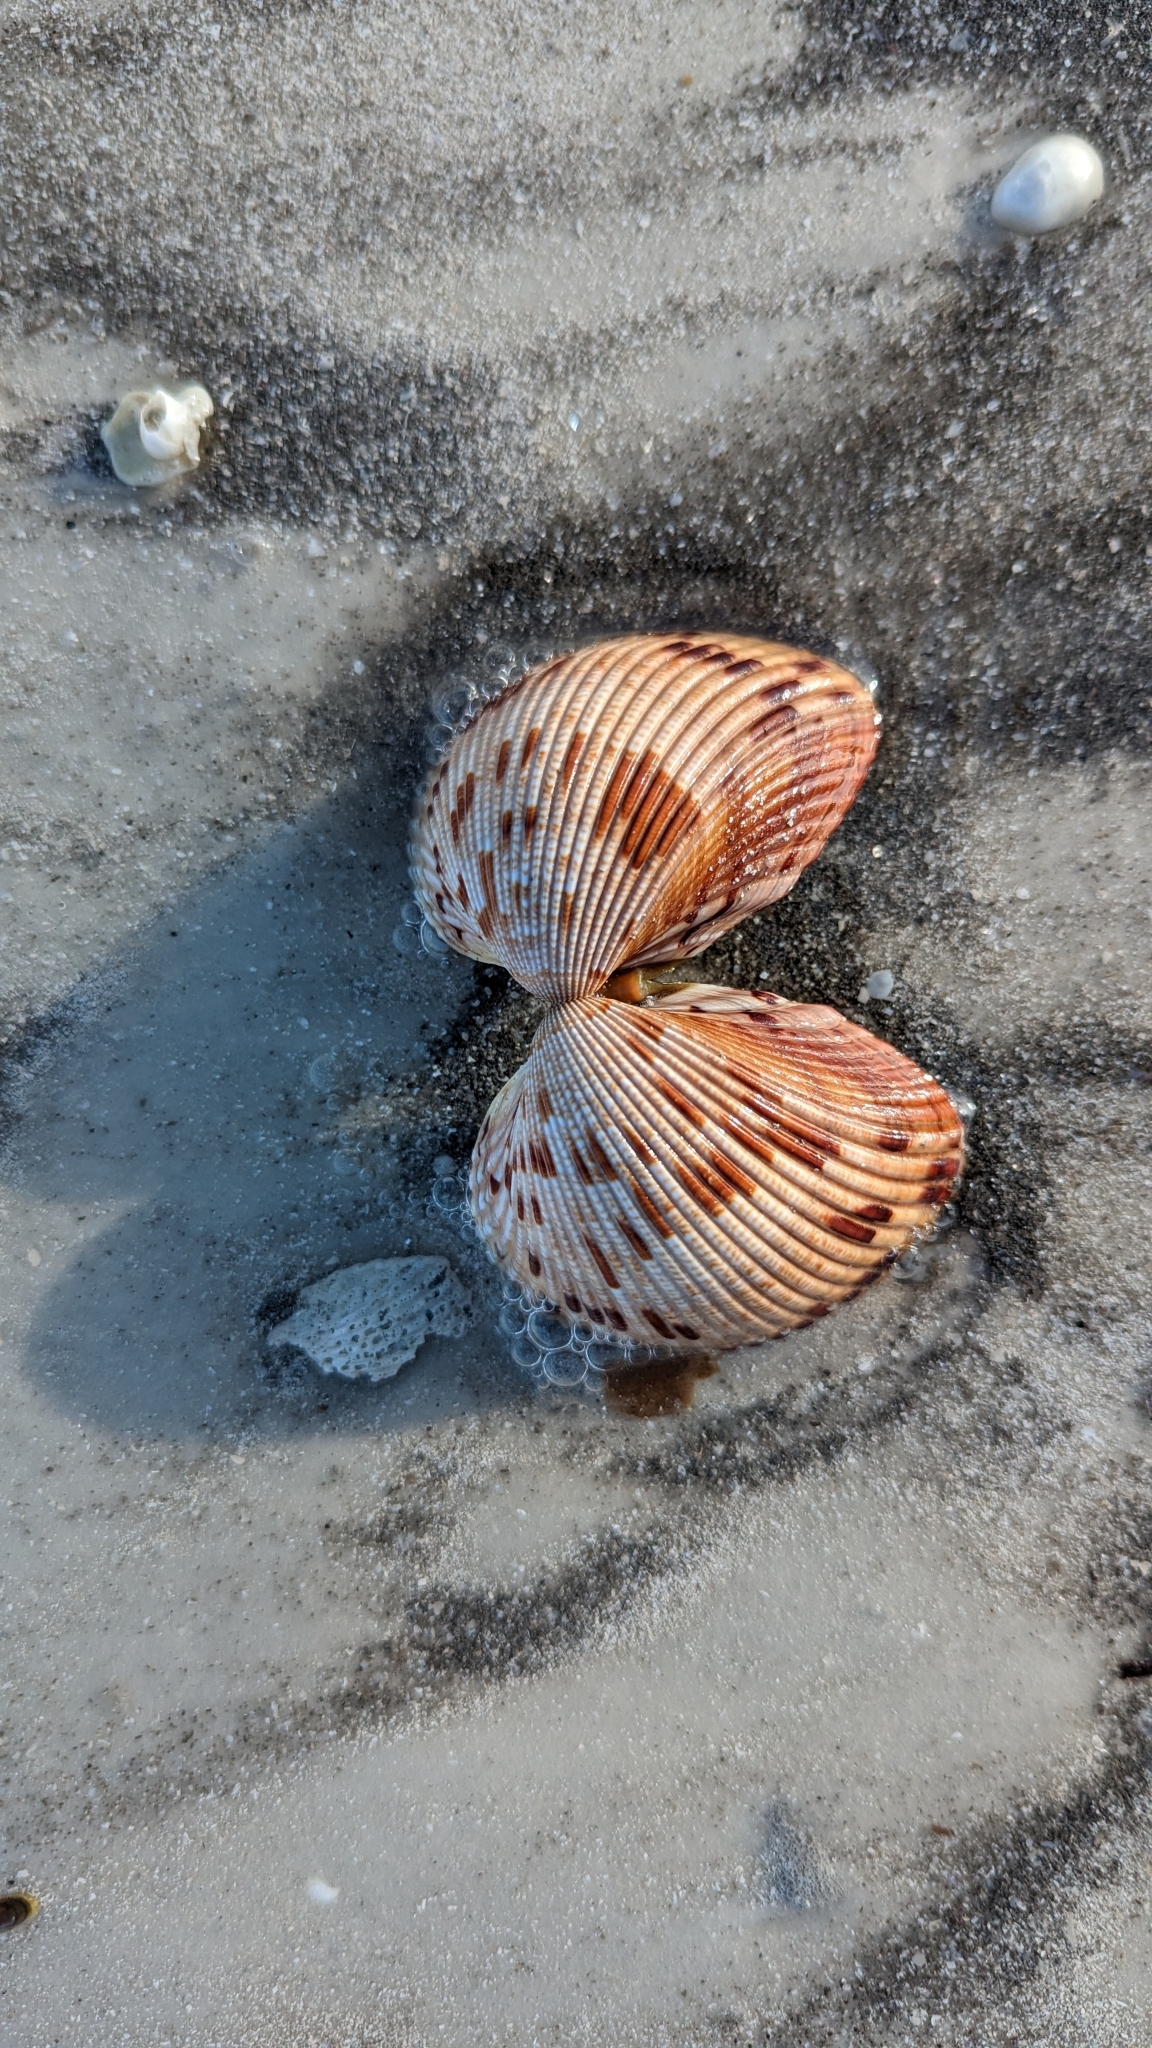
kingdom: Animalia
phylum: Mollusca
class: Bivalvia
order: Cardiida
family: Cardiidae
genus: Dinocardium
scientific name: Dinocardium robustum
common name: Atlantic giant cockle
